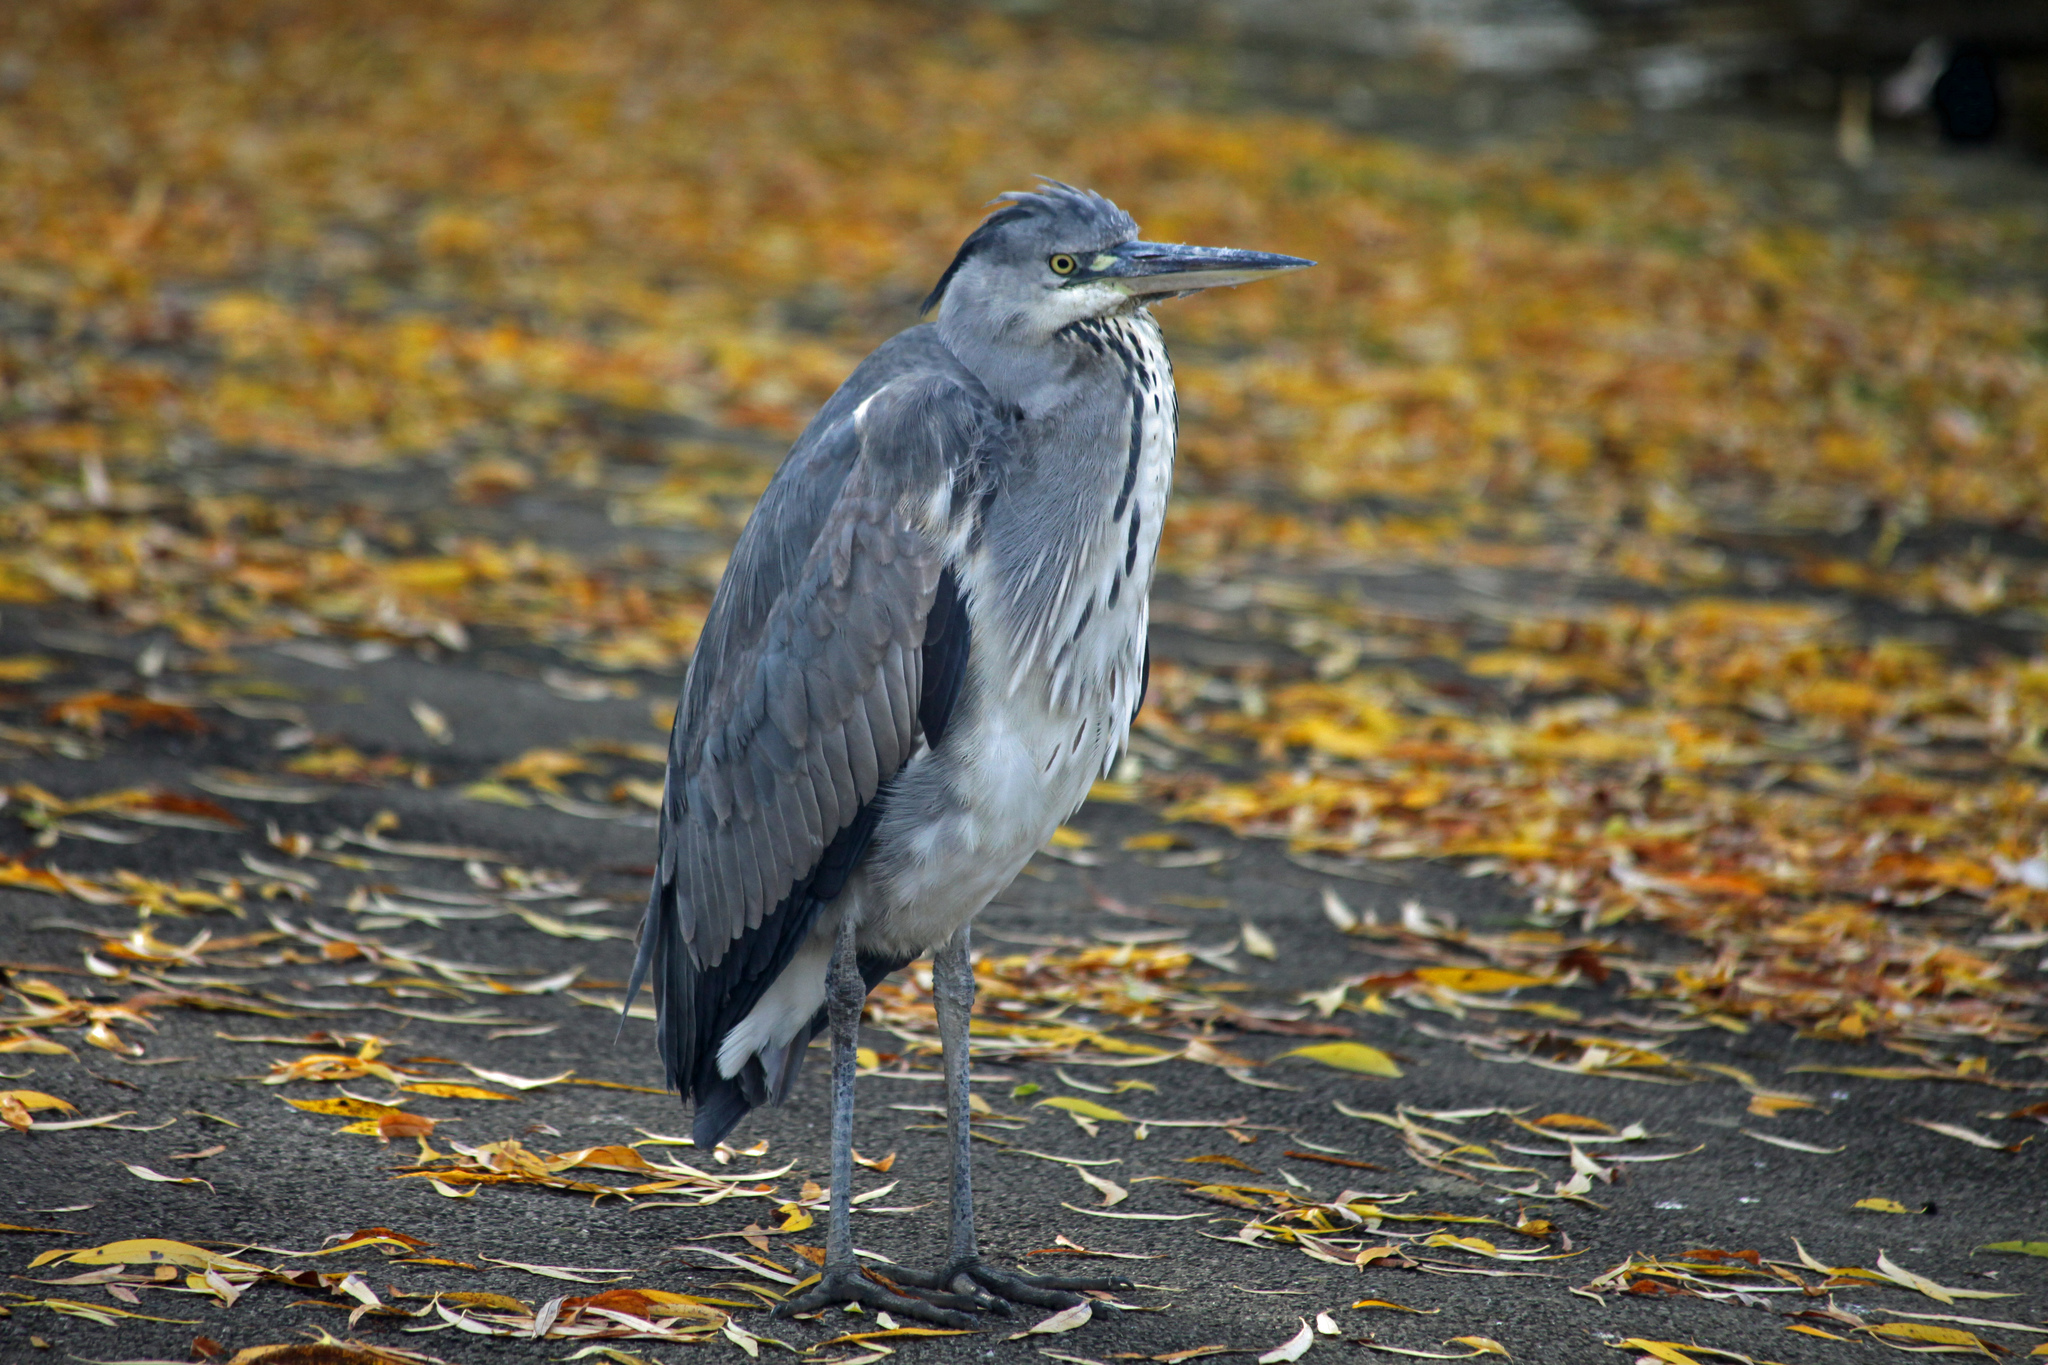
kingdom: Animalia
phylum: Chordata
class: Aves
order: Pelecaniformes
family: Ardeidae
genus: Ardea
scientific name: Ardea cinerea
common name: Grey heron
